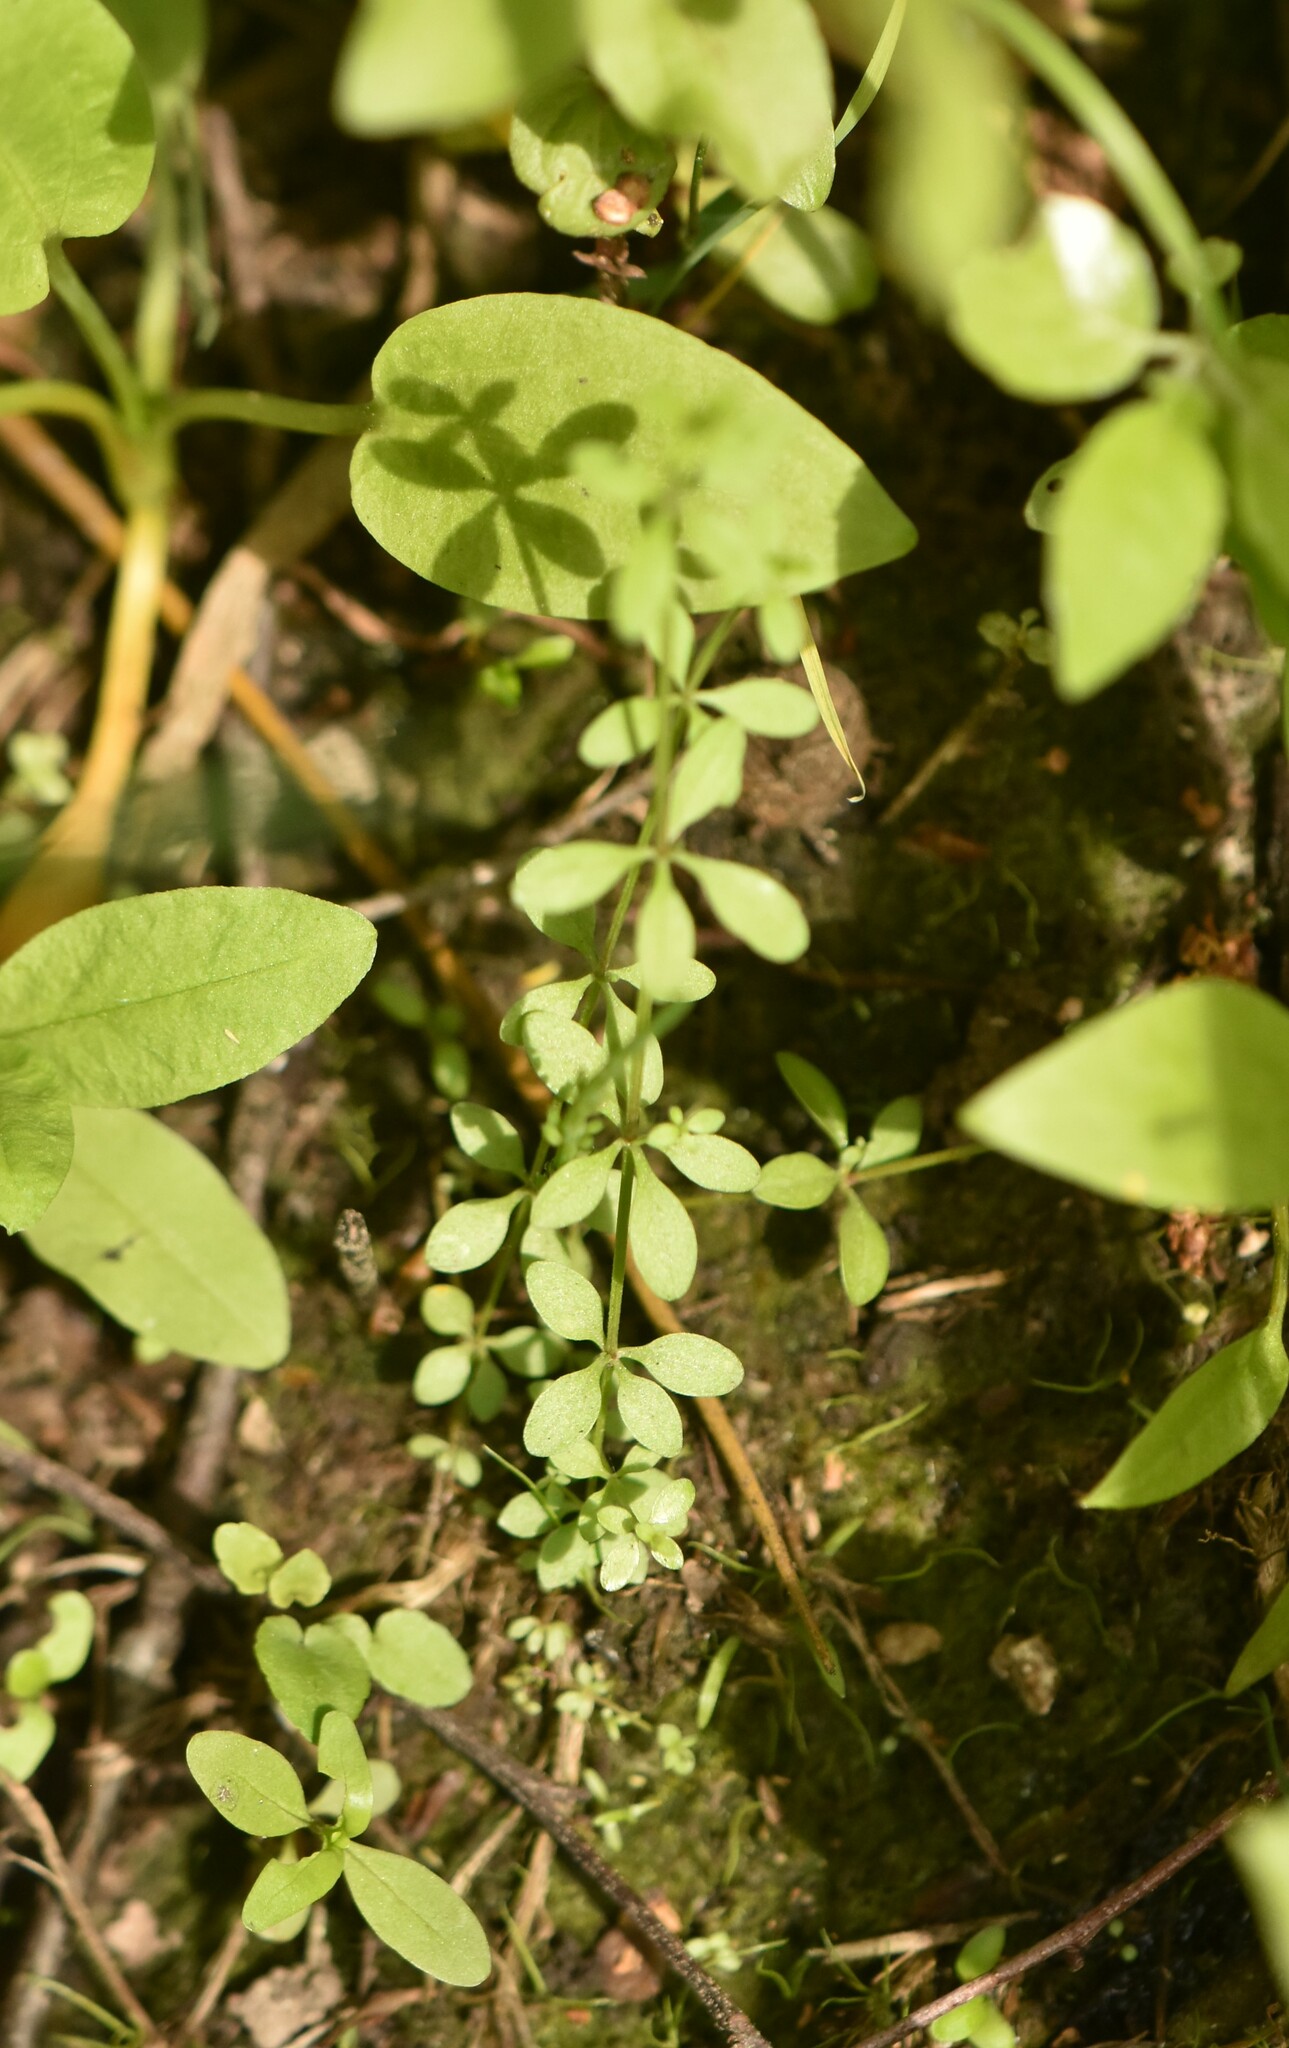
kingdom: Plantae
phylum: Tracheophyta
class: Magnoliopsida
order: Gentianales
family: Rubiaceae
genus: Galium
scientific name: Galium palustre
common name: Common marsh-bedstraw
